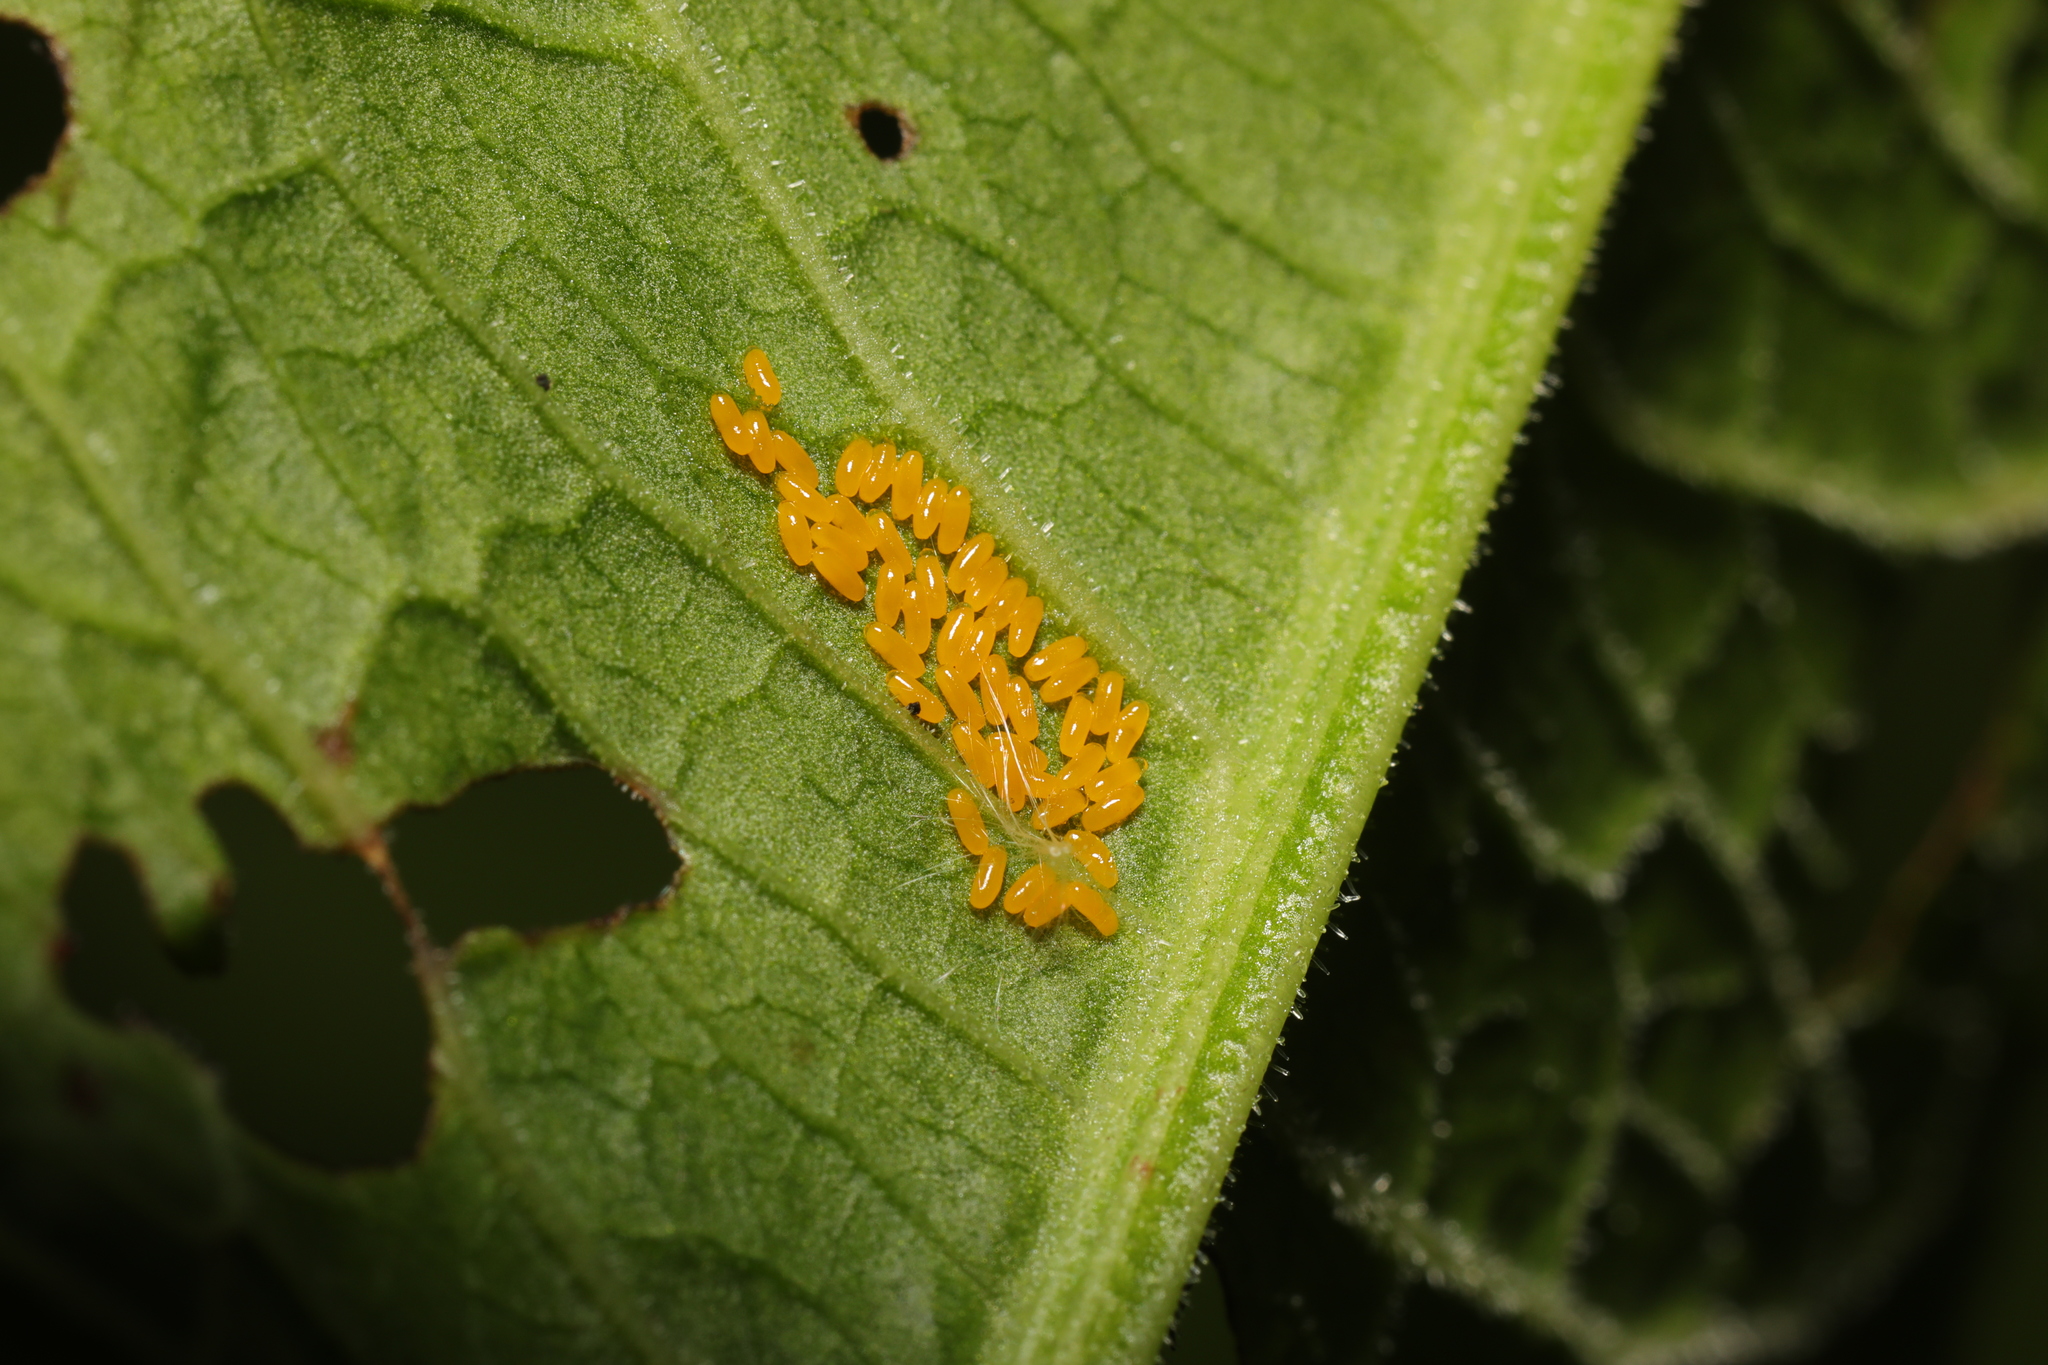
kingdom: Animalia
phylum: Arthropoda
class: Insecta
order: Coleoptera
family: Chrysomelidae
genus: Gastrophysa
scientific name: Gastrophysa viridula
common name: Green dock beetle
